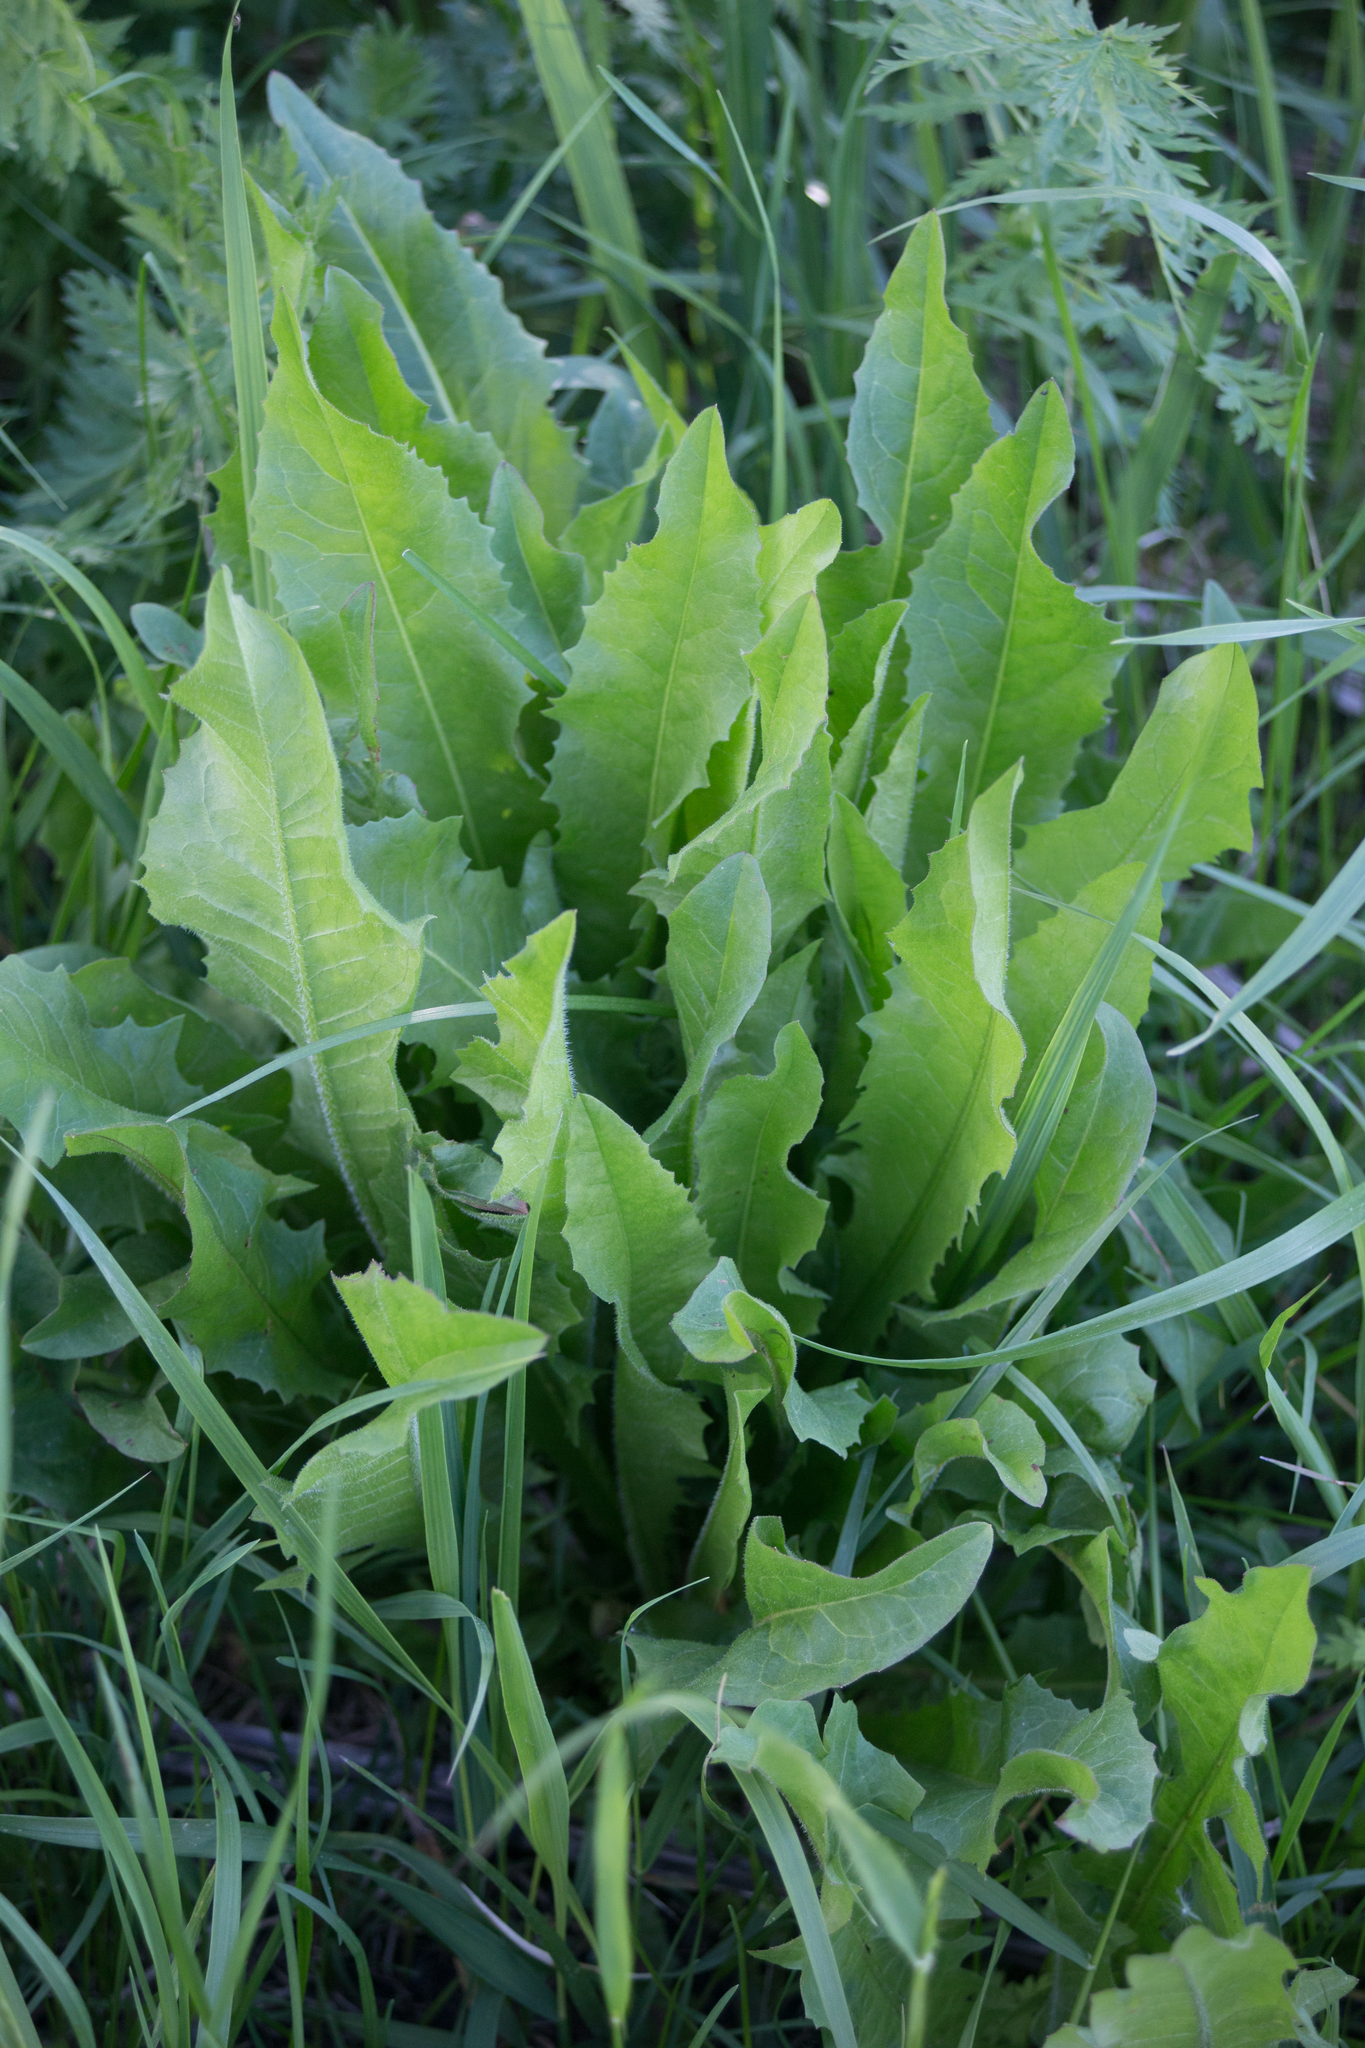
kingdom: Plantae
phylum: Tracheophyta
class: Magnoliopsida
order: Asterales
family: Asteraceae
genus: Cichorium
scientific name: Cichorium intybus
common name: Chicory
